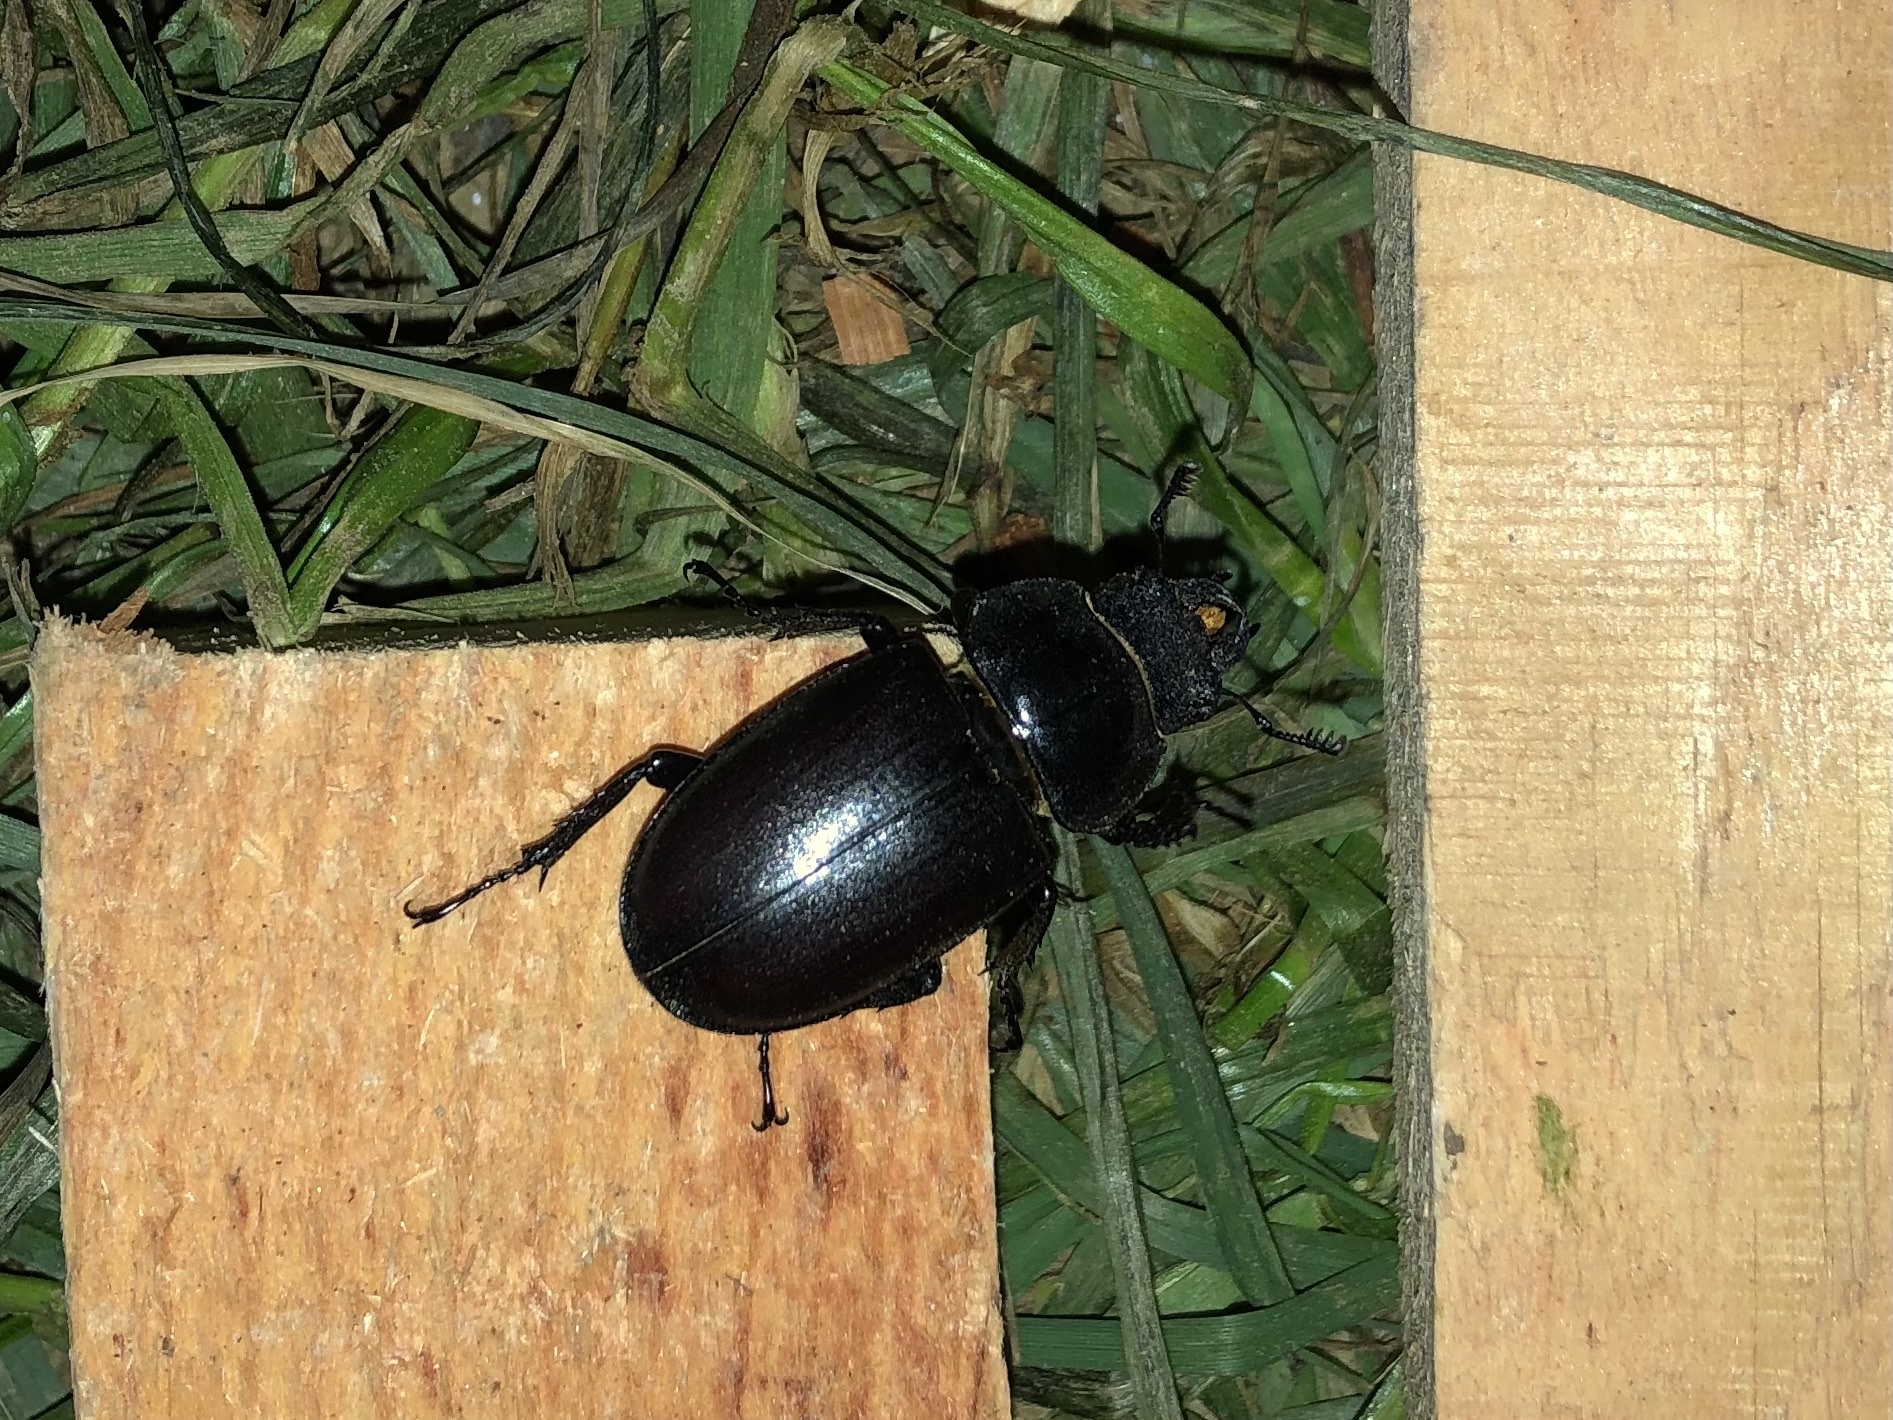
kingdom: Animalia
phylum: Arthropoda
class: Insecta
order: Coleoptera
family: Lucanidae
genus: Lucanus
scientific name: Lucanus cervus
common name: Stag beetle
